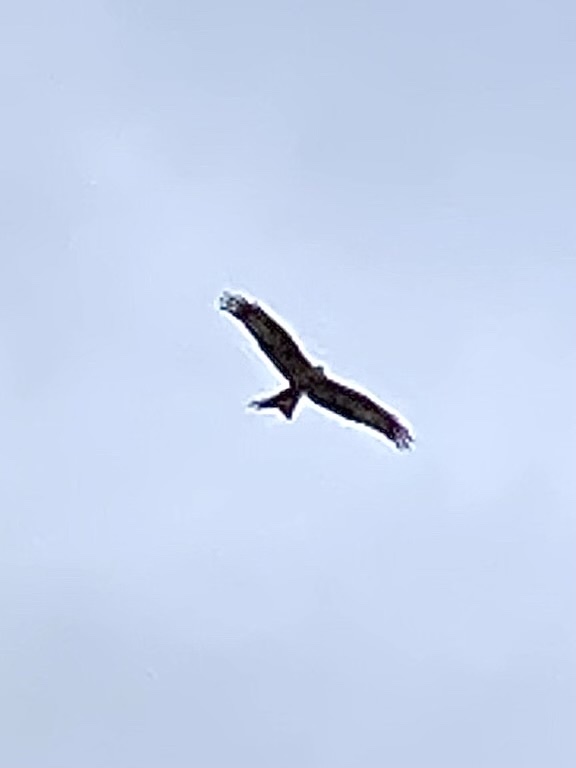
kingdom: Animalia
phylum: Chordata
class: Aves
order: Accipitriformes
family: Accipitridae
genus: Milvus
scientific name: Milvus milvus
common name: Red kite
